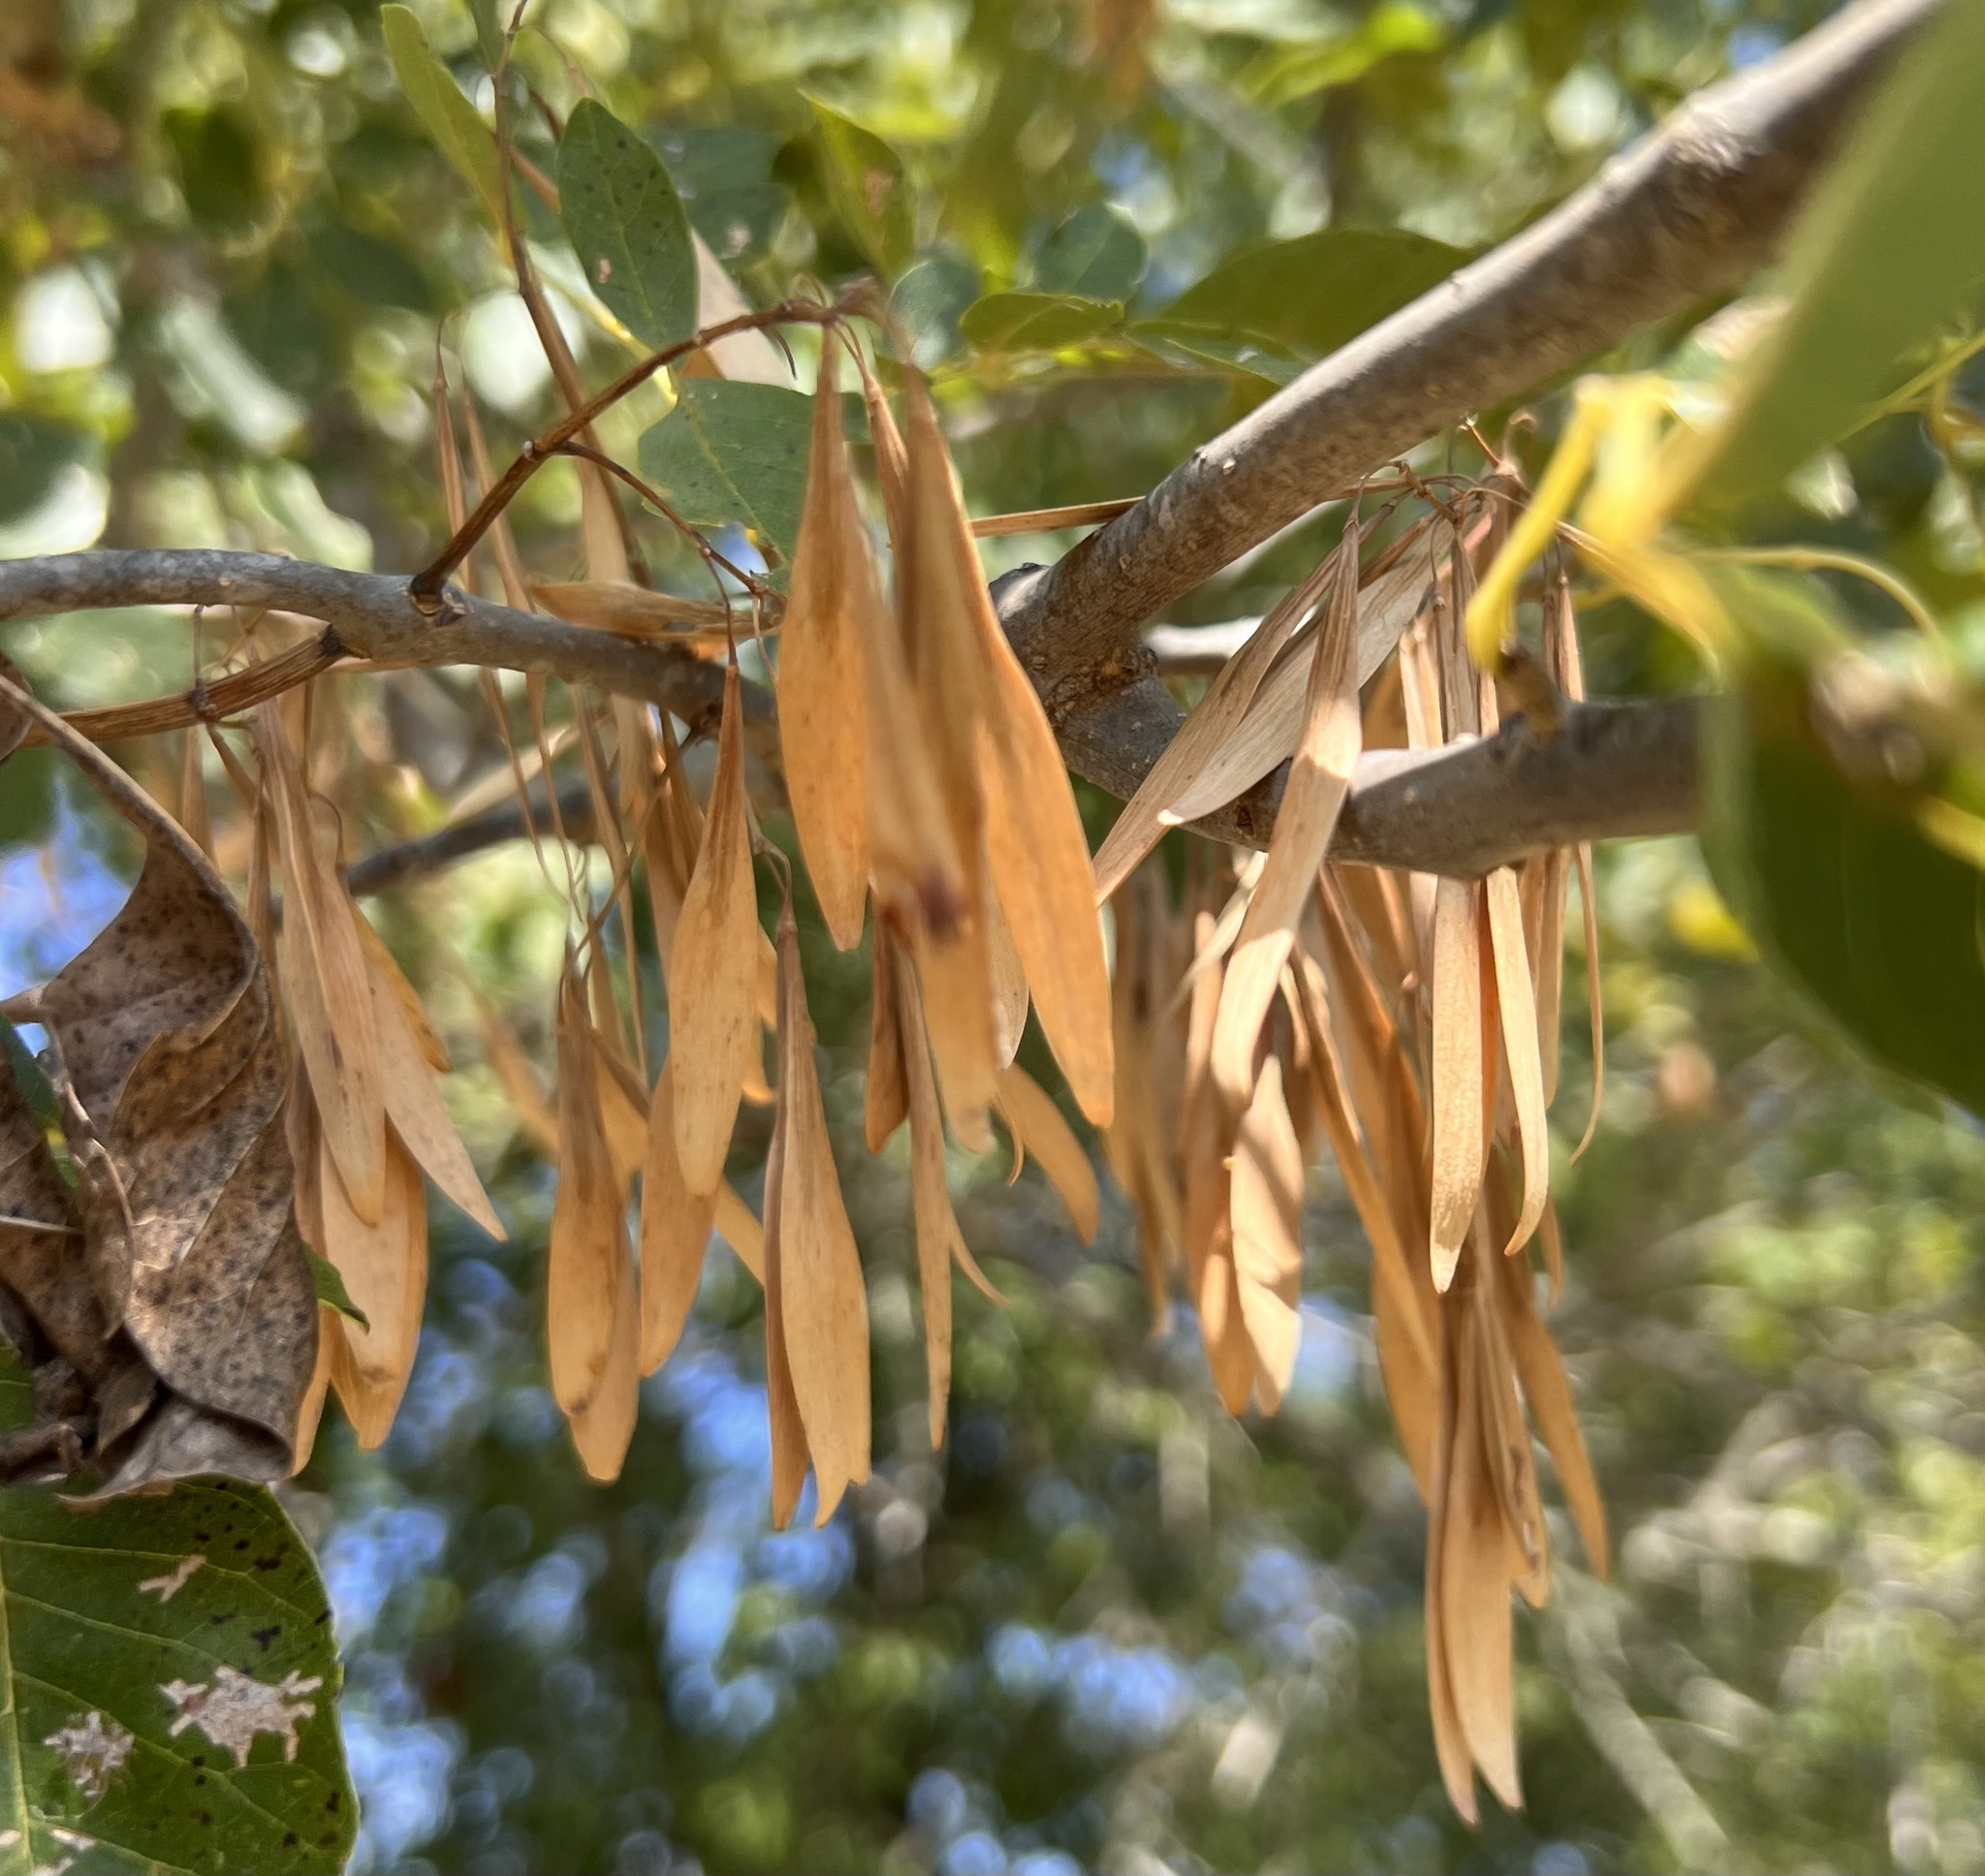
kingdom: Plantae
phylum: Tracheophyta
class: Magnoliopsida
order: Lamiales
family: Oleaceae
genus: Fraxinus
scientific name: Fraxinus pennsylvanica
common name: Green ash
